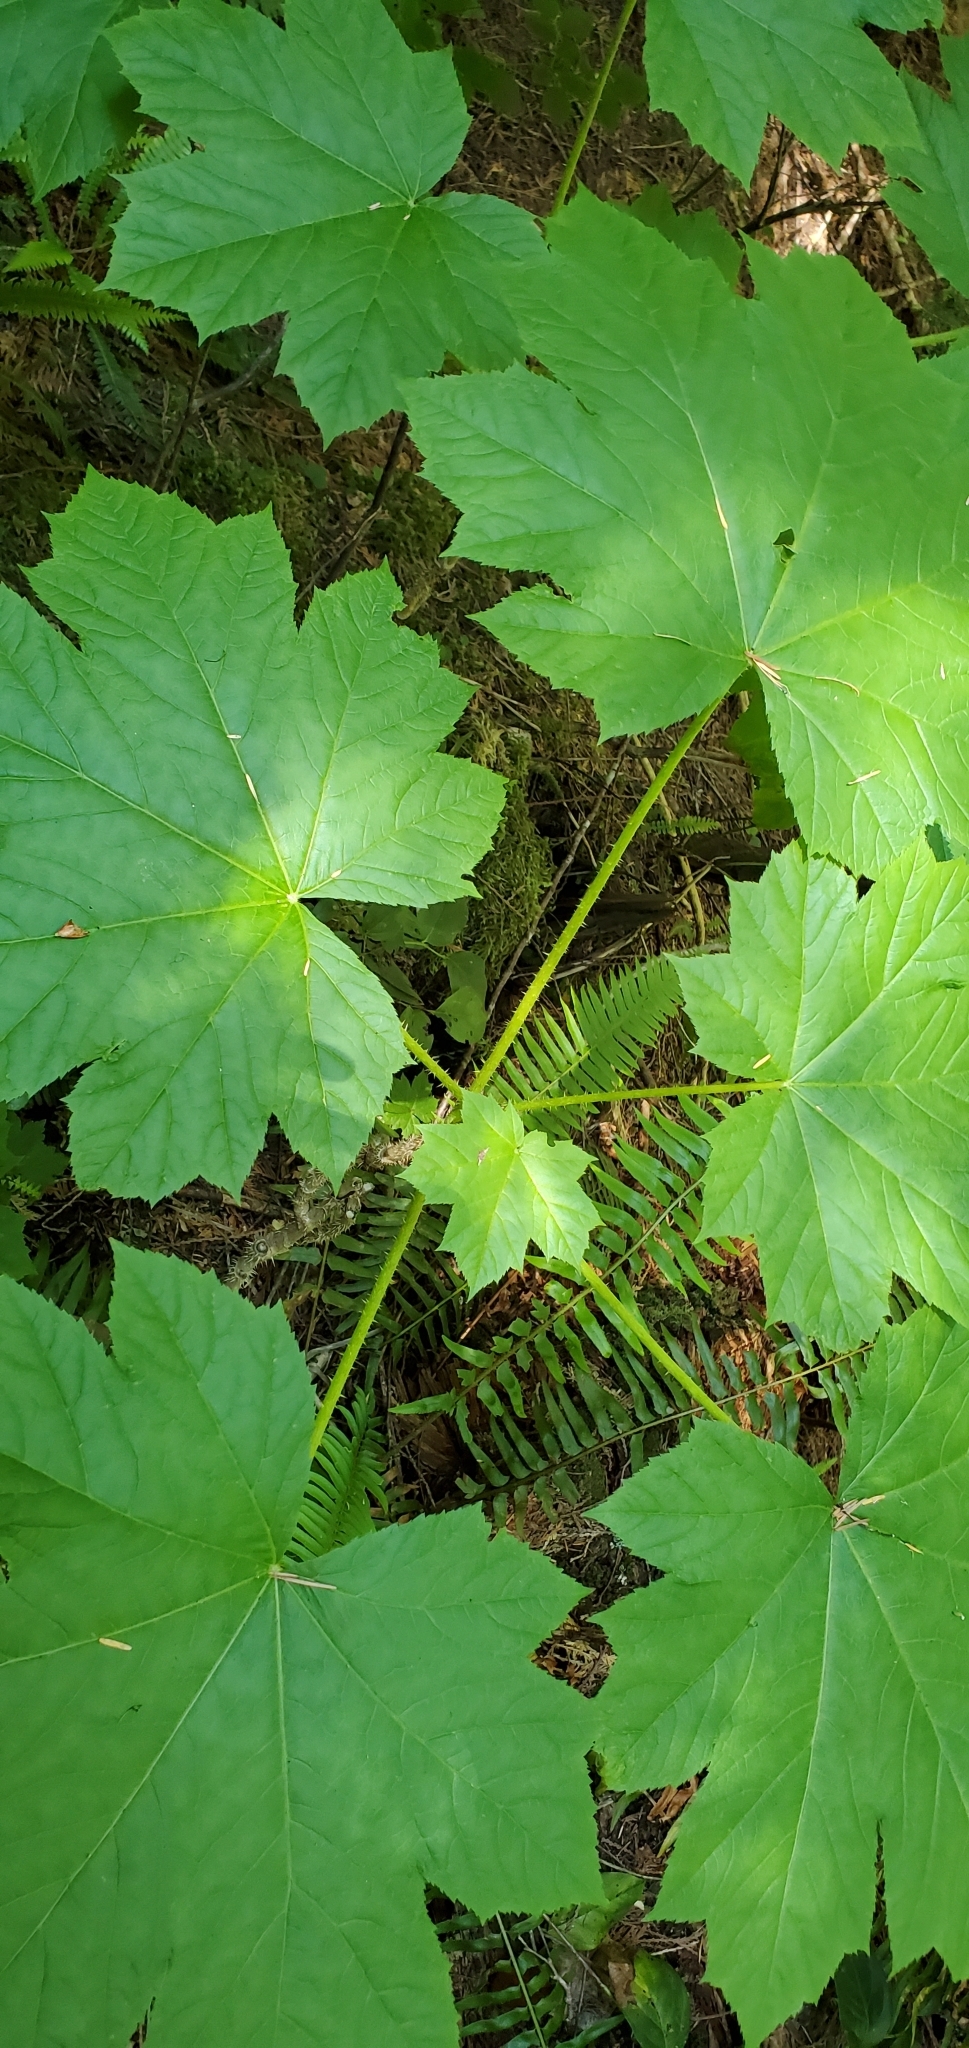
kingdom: Plantae
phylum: Tracheophyta
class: Magnoliopsida
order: Apiales
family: Araliaceae
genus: Oplopanax
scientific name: Oplopanax horridus
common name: Devil's walking-stick
